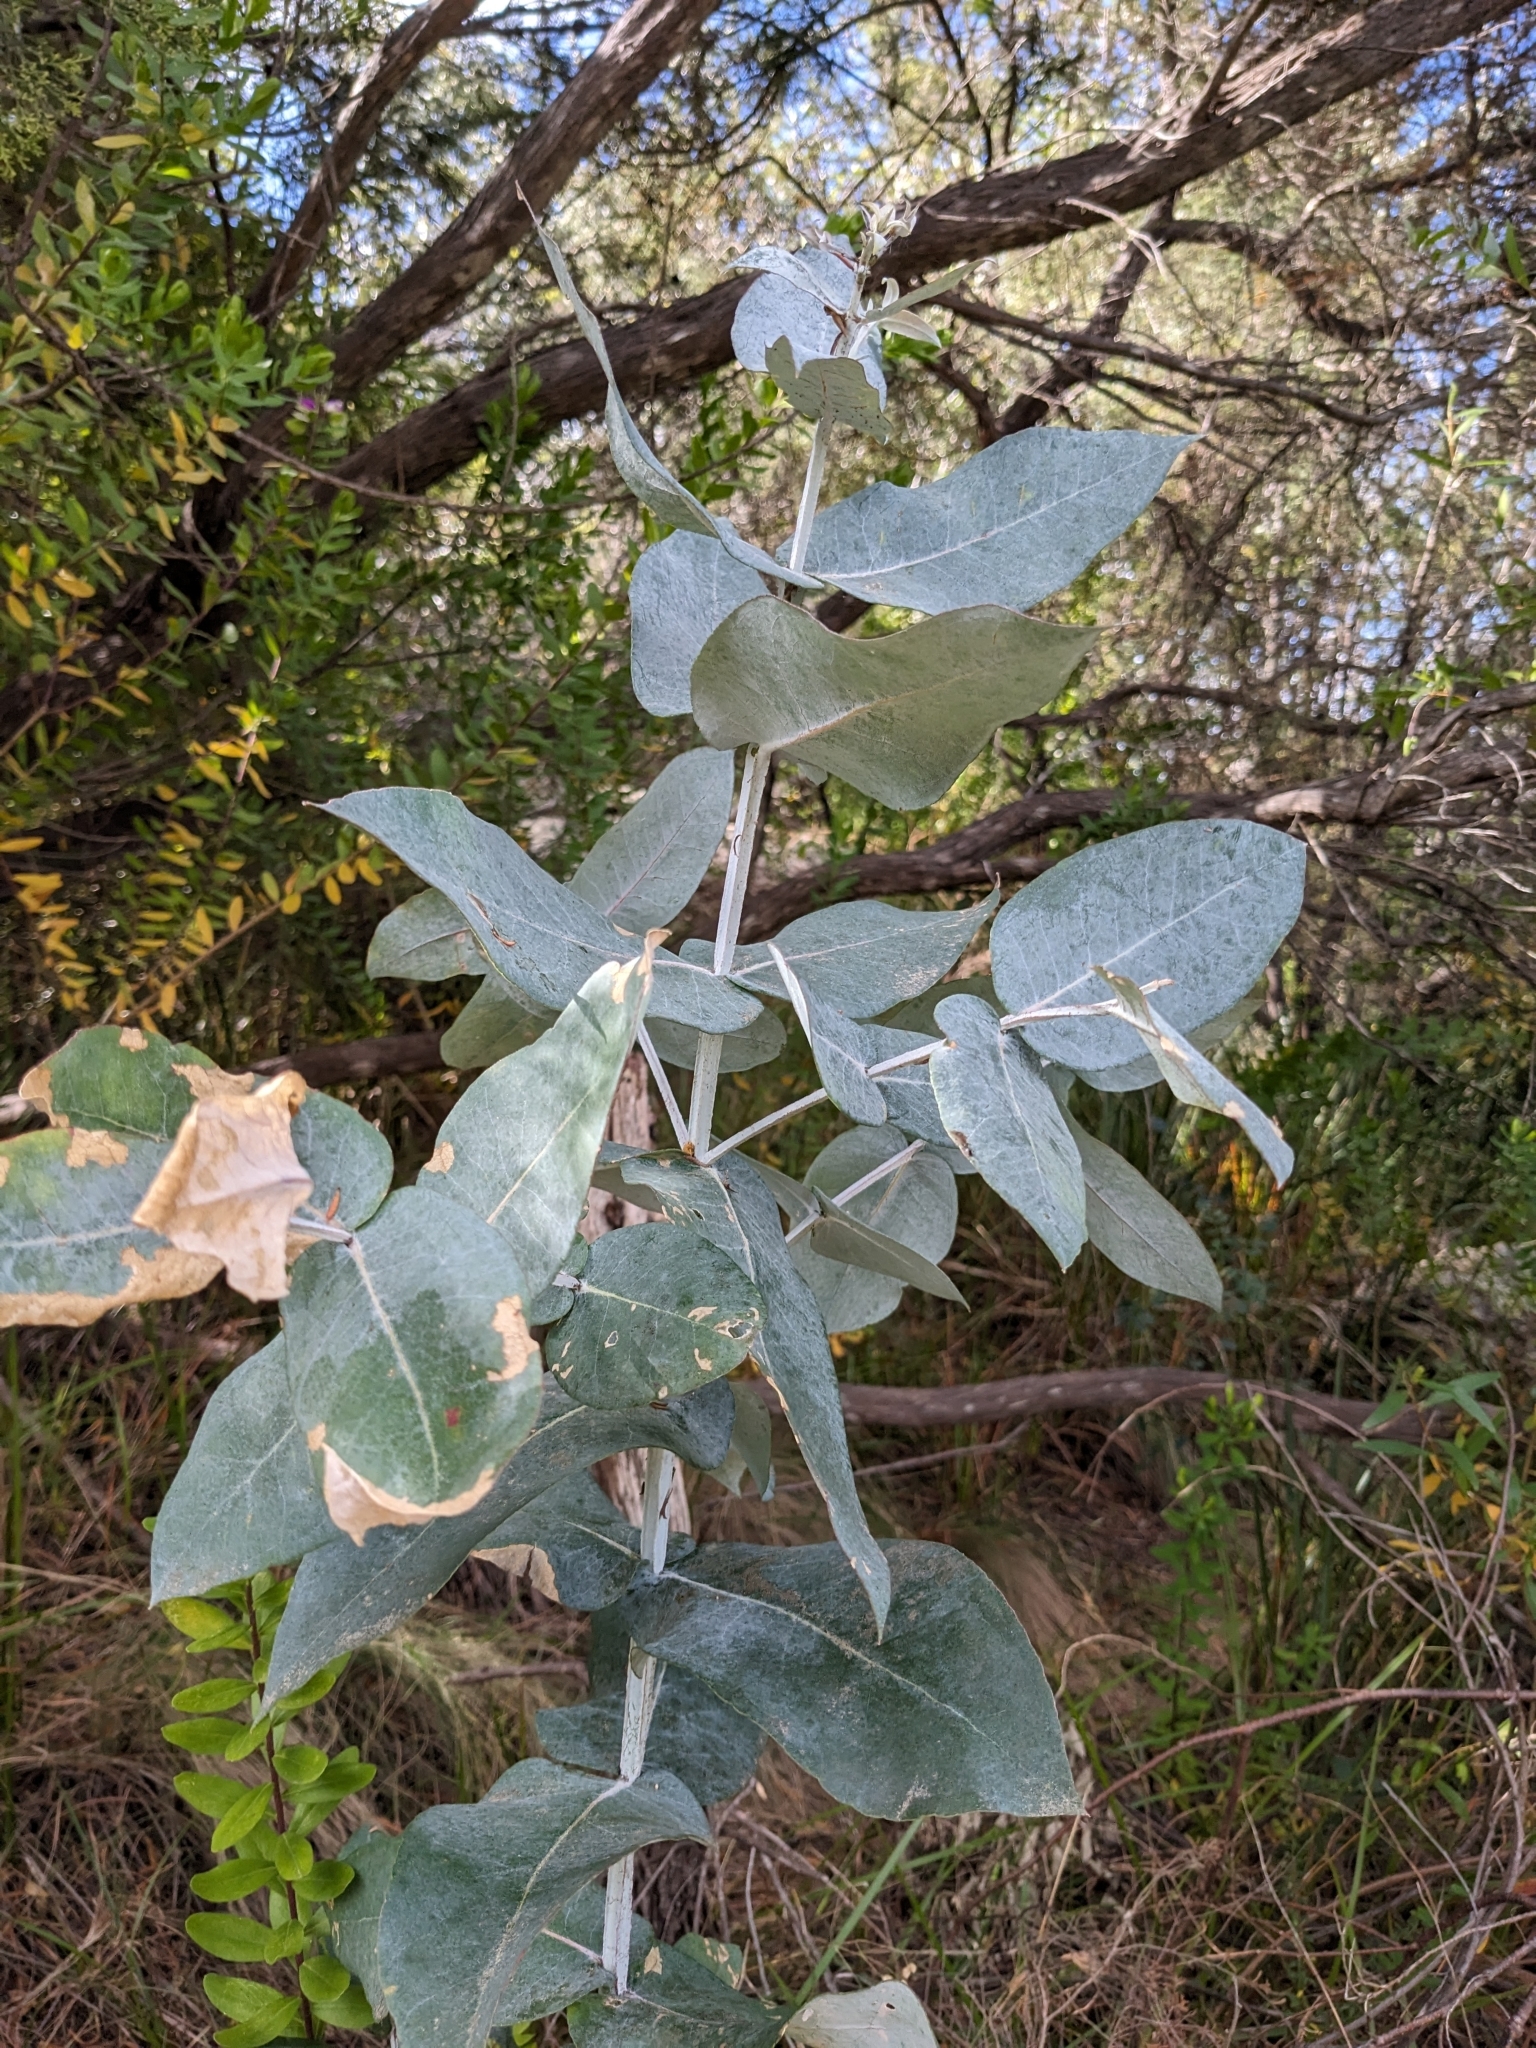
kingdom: Plantae
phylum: Tracheophyta
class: Magnoliopsida
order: Myrtales
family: Myrtaceae
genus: Eucalyptus
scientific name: Eucalyptus globulus
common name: Southern blue-gum
